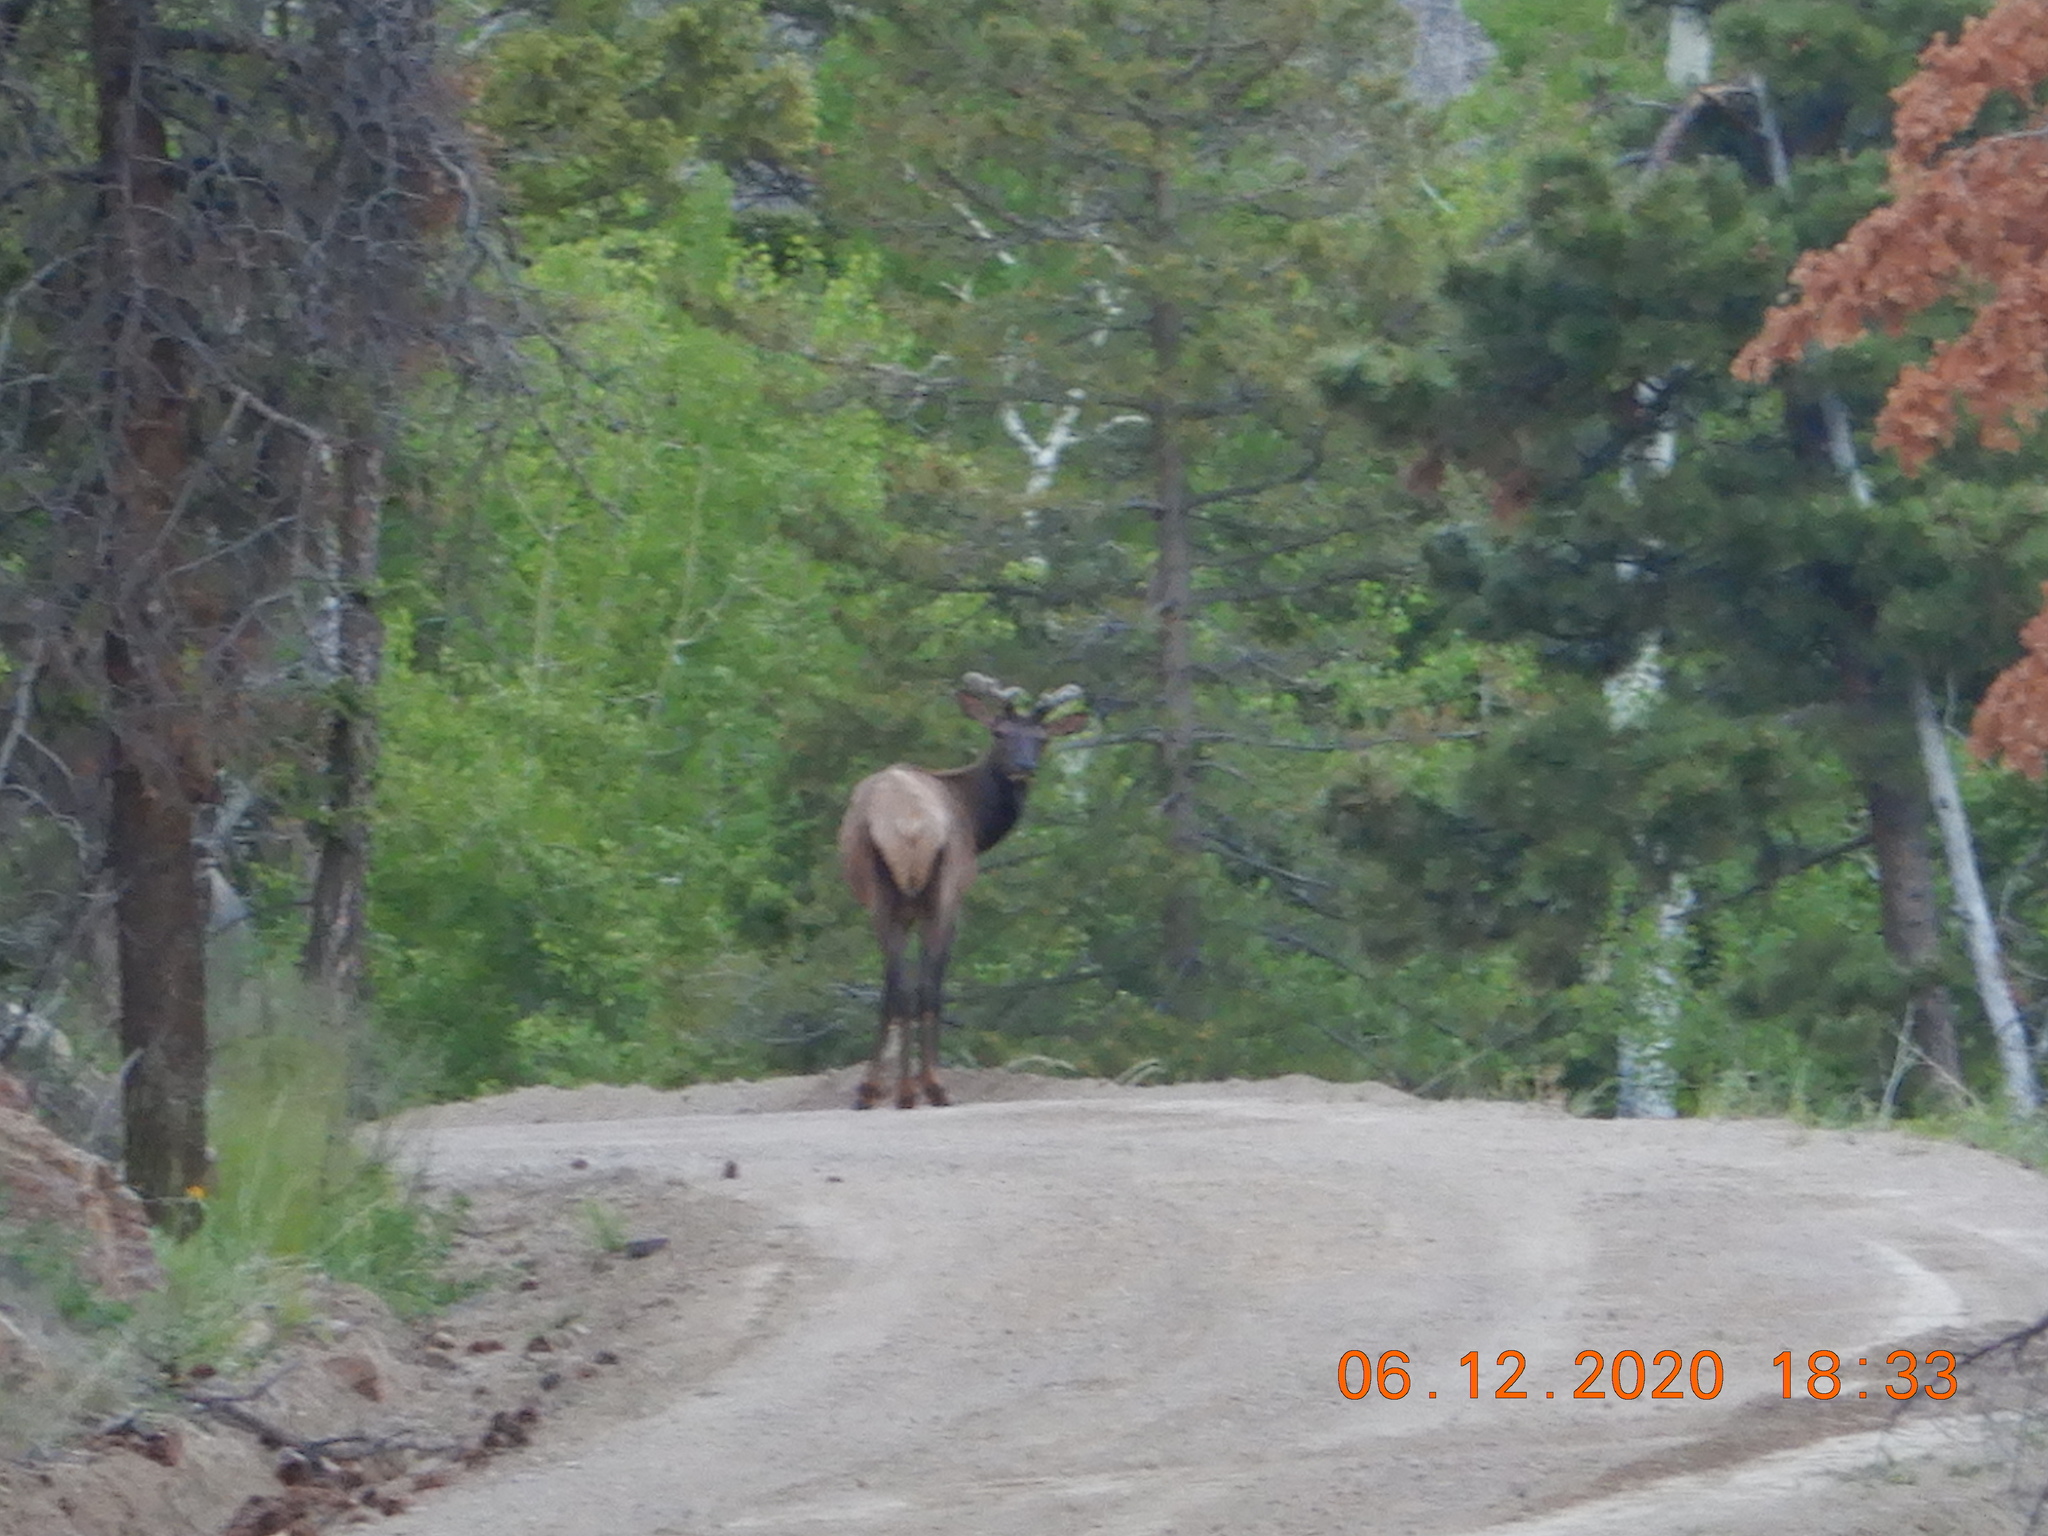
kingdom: Animalia
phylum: Chordata
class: Mammalia
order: Artiodactyla
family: Cervidae
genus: Cervus
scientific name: Cervus elaphus
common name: Red deer
